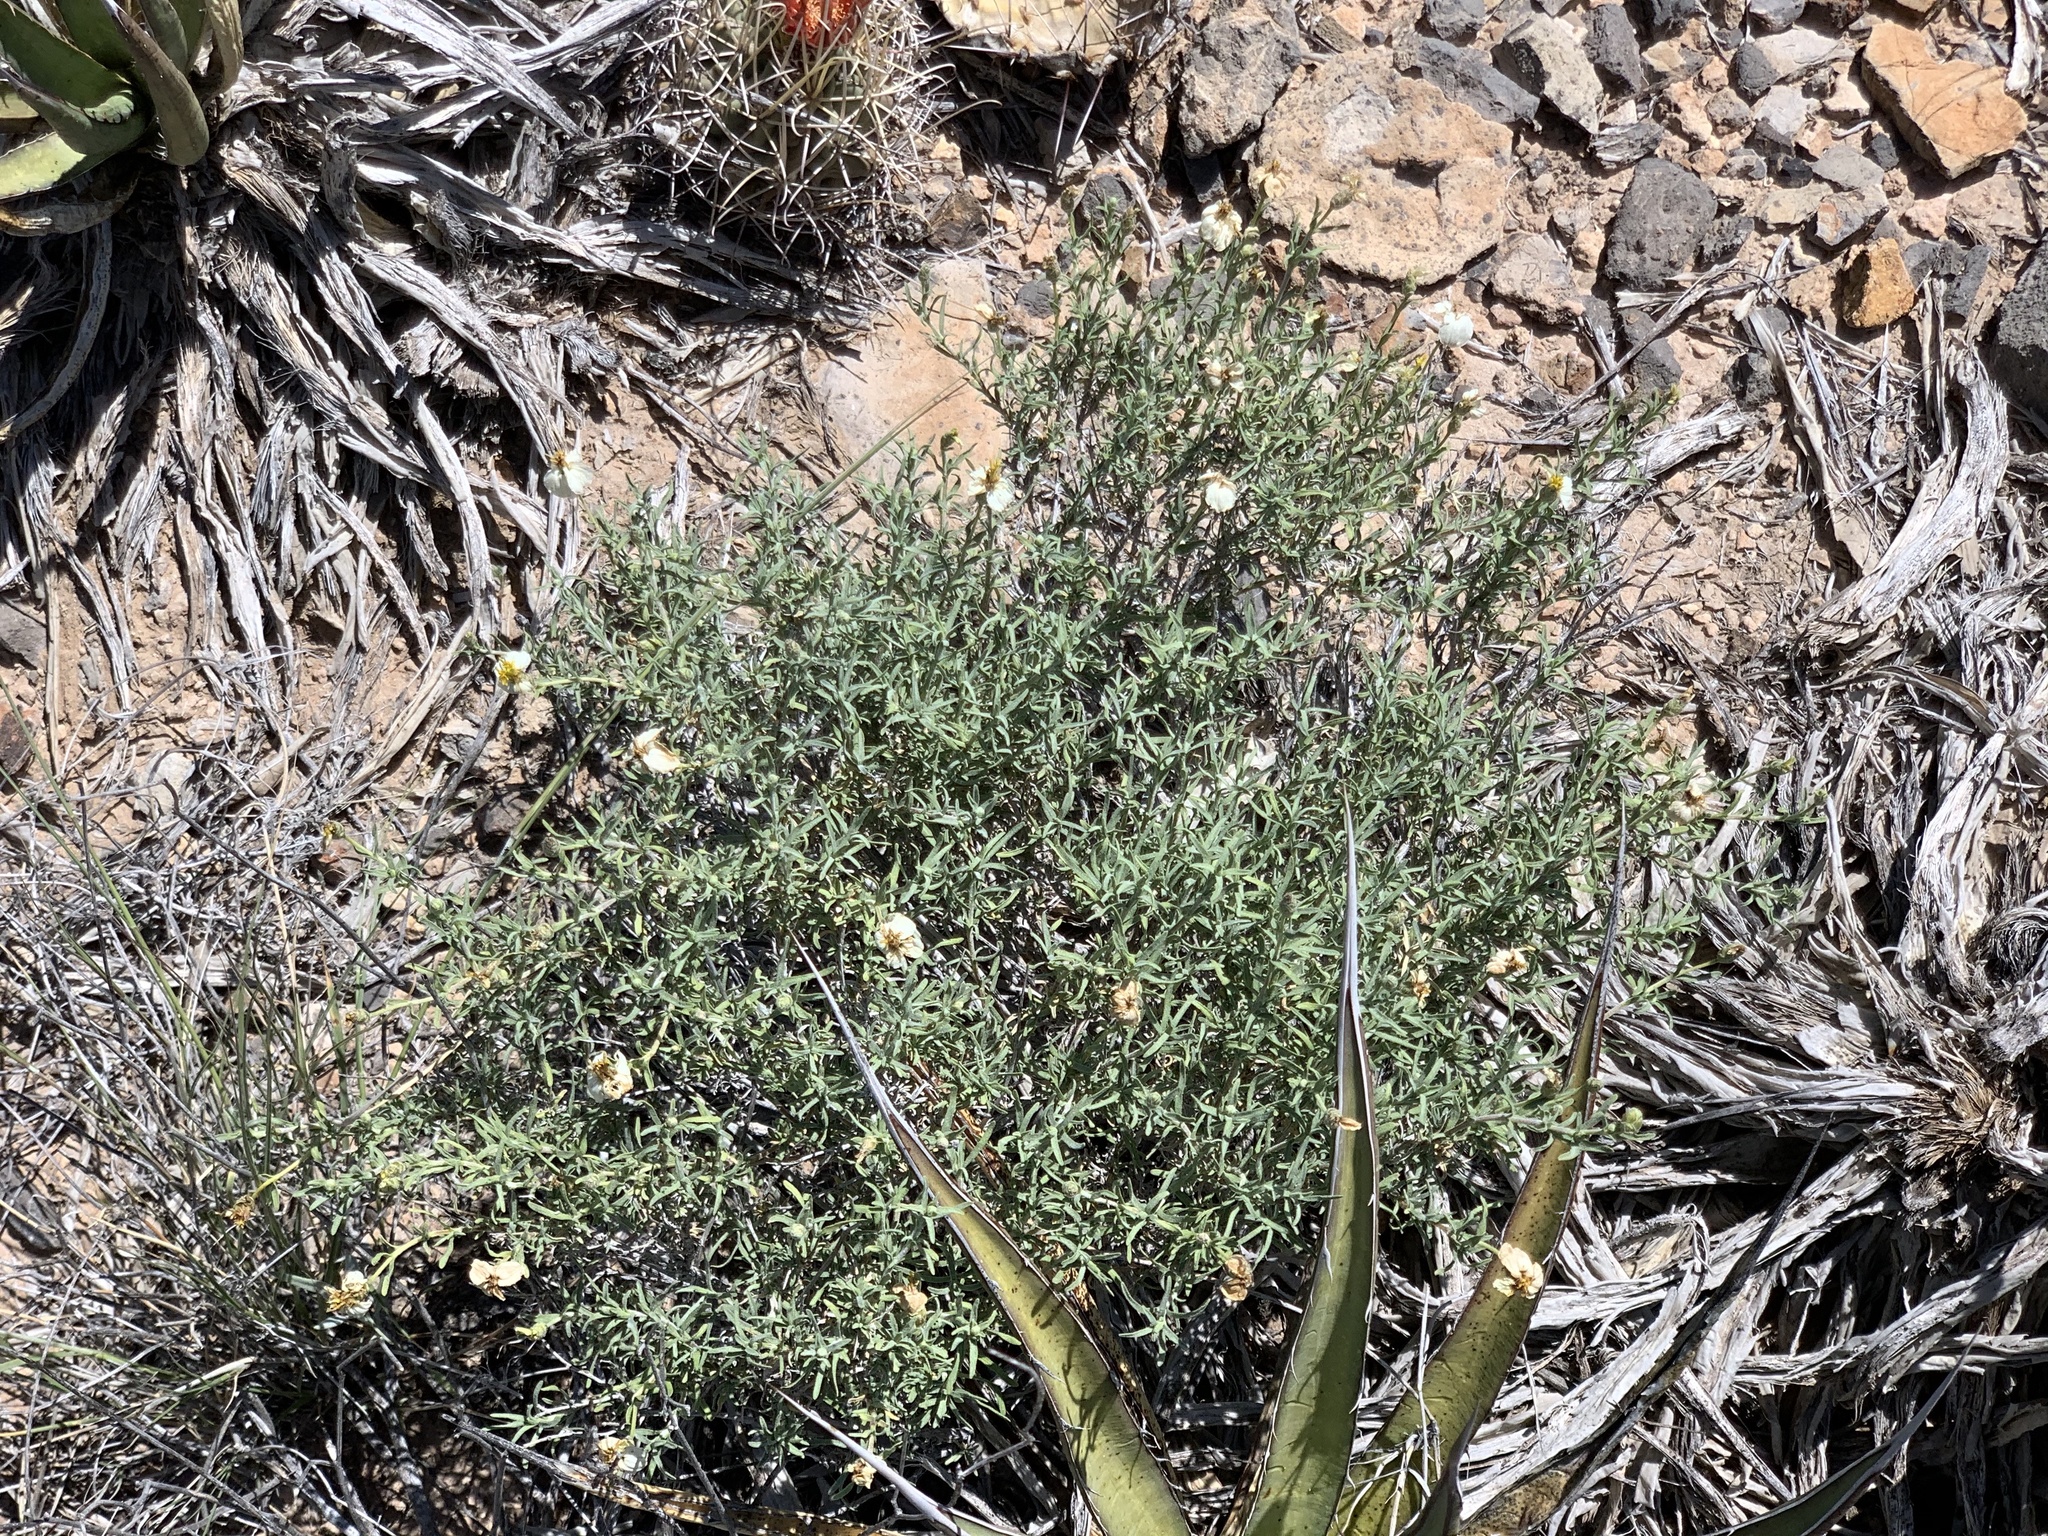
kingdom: Plantae
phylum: Tracheophyta
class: Magnoliopsida
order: Asterales
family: Asteraceae
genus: Zinnia
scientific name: Zinnia acerosa
